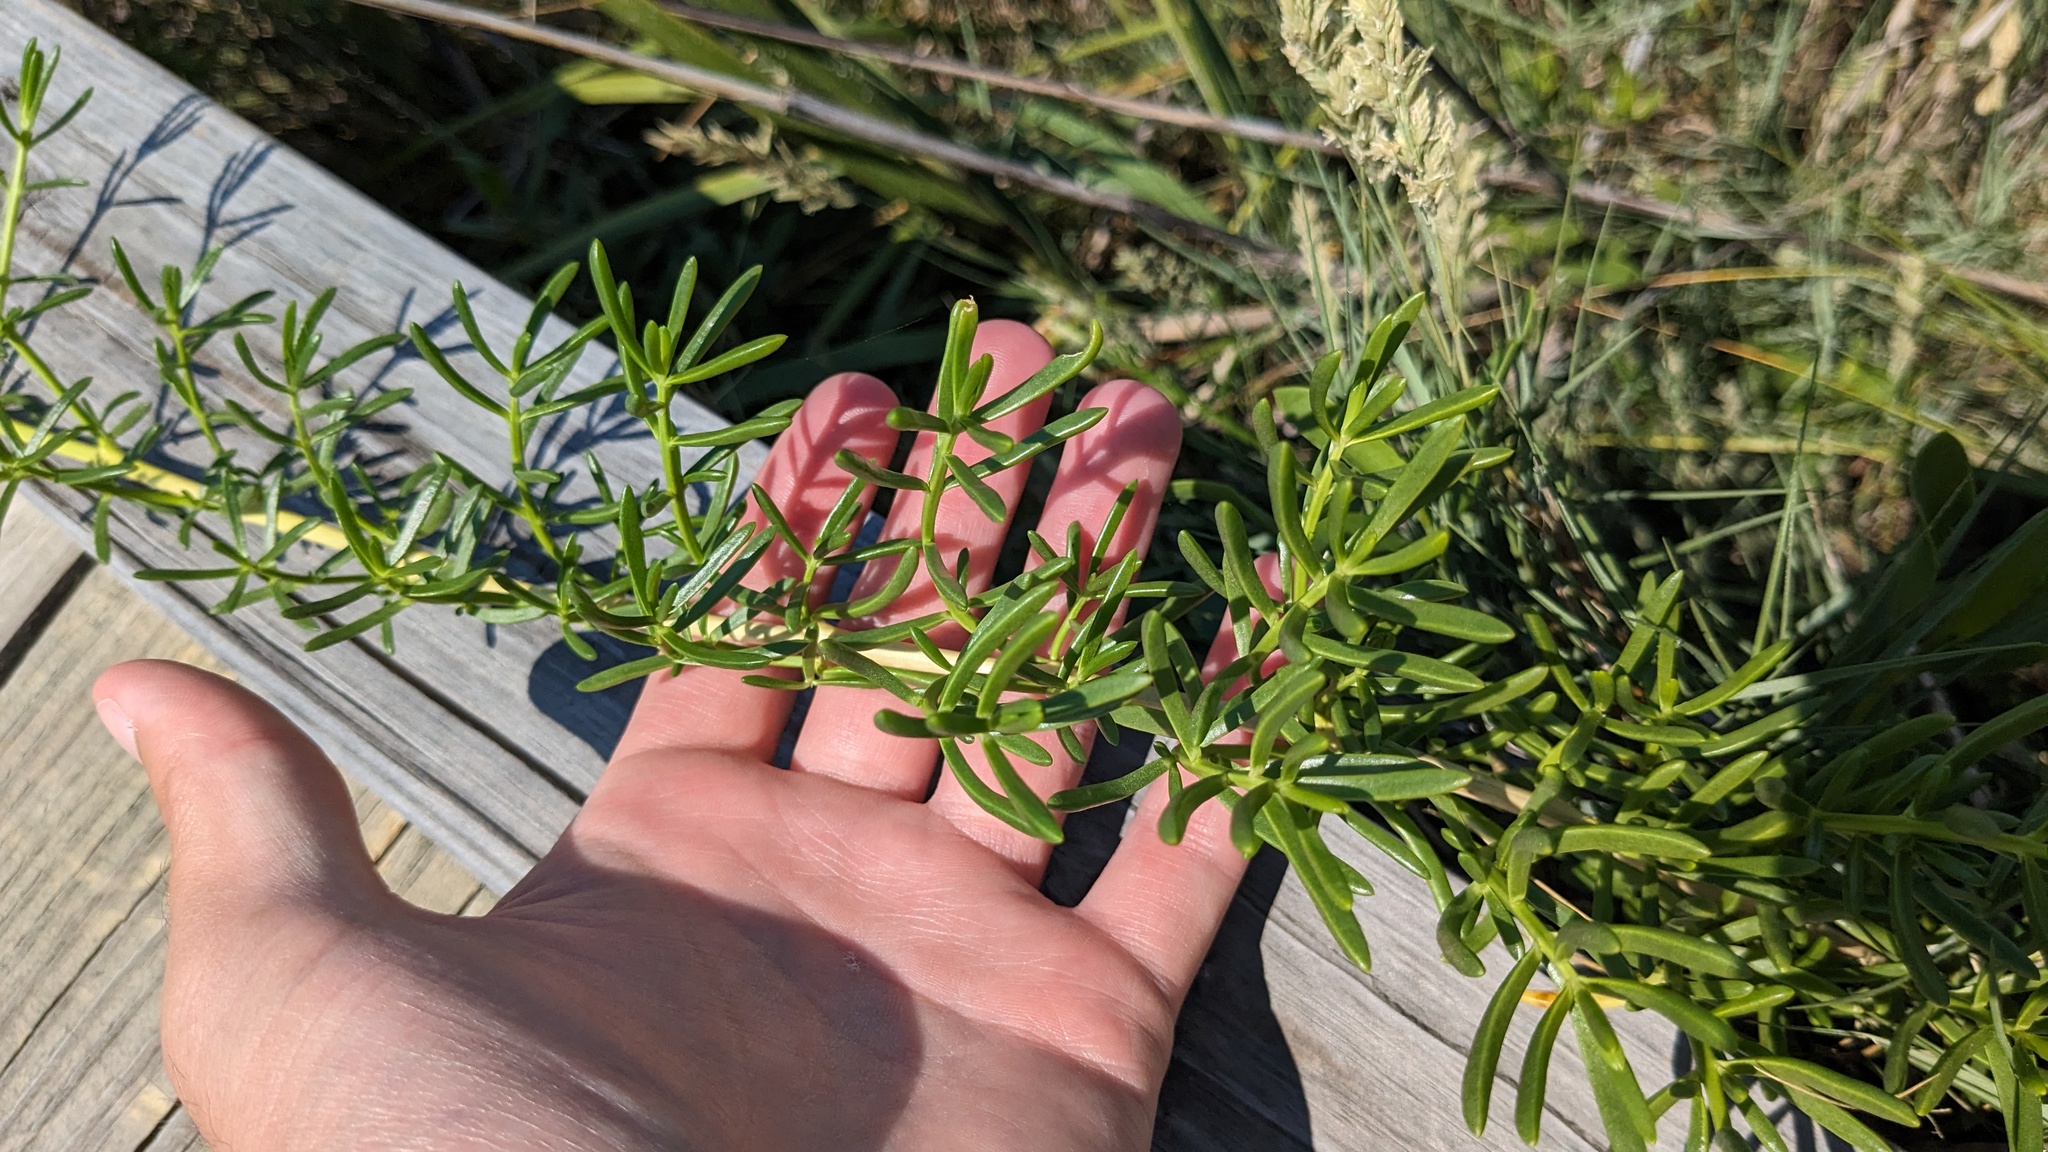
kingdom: Plantae
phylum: Tracheophyta
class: Magnoliopsida
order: Brassicales
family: Bataceae
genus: Batis
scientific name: Batis maritima
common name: Turtleweed
